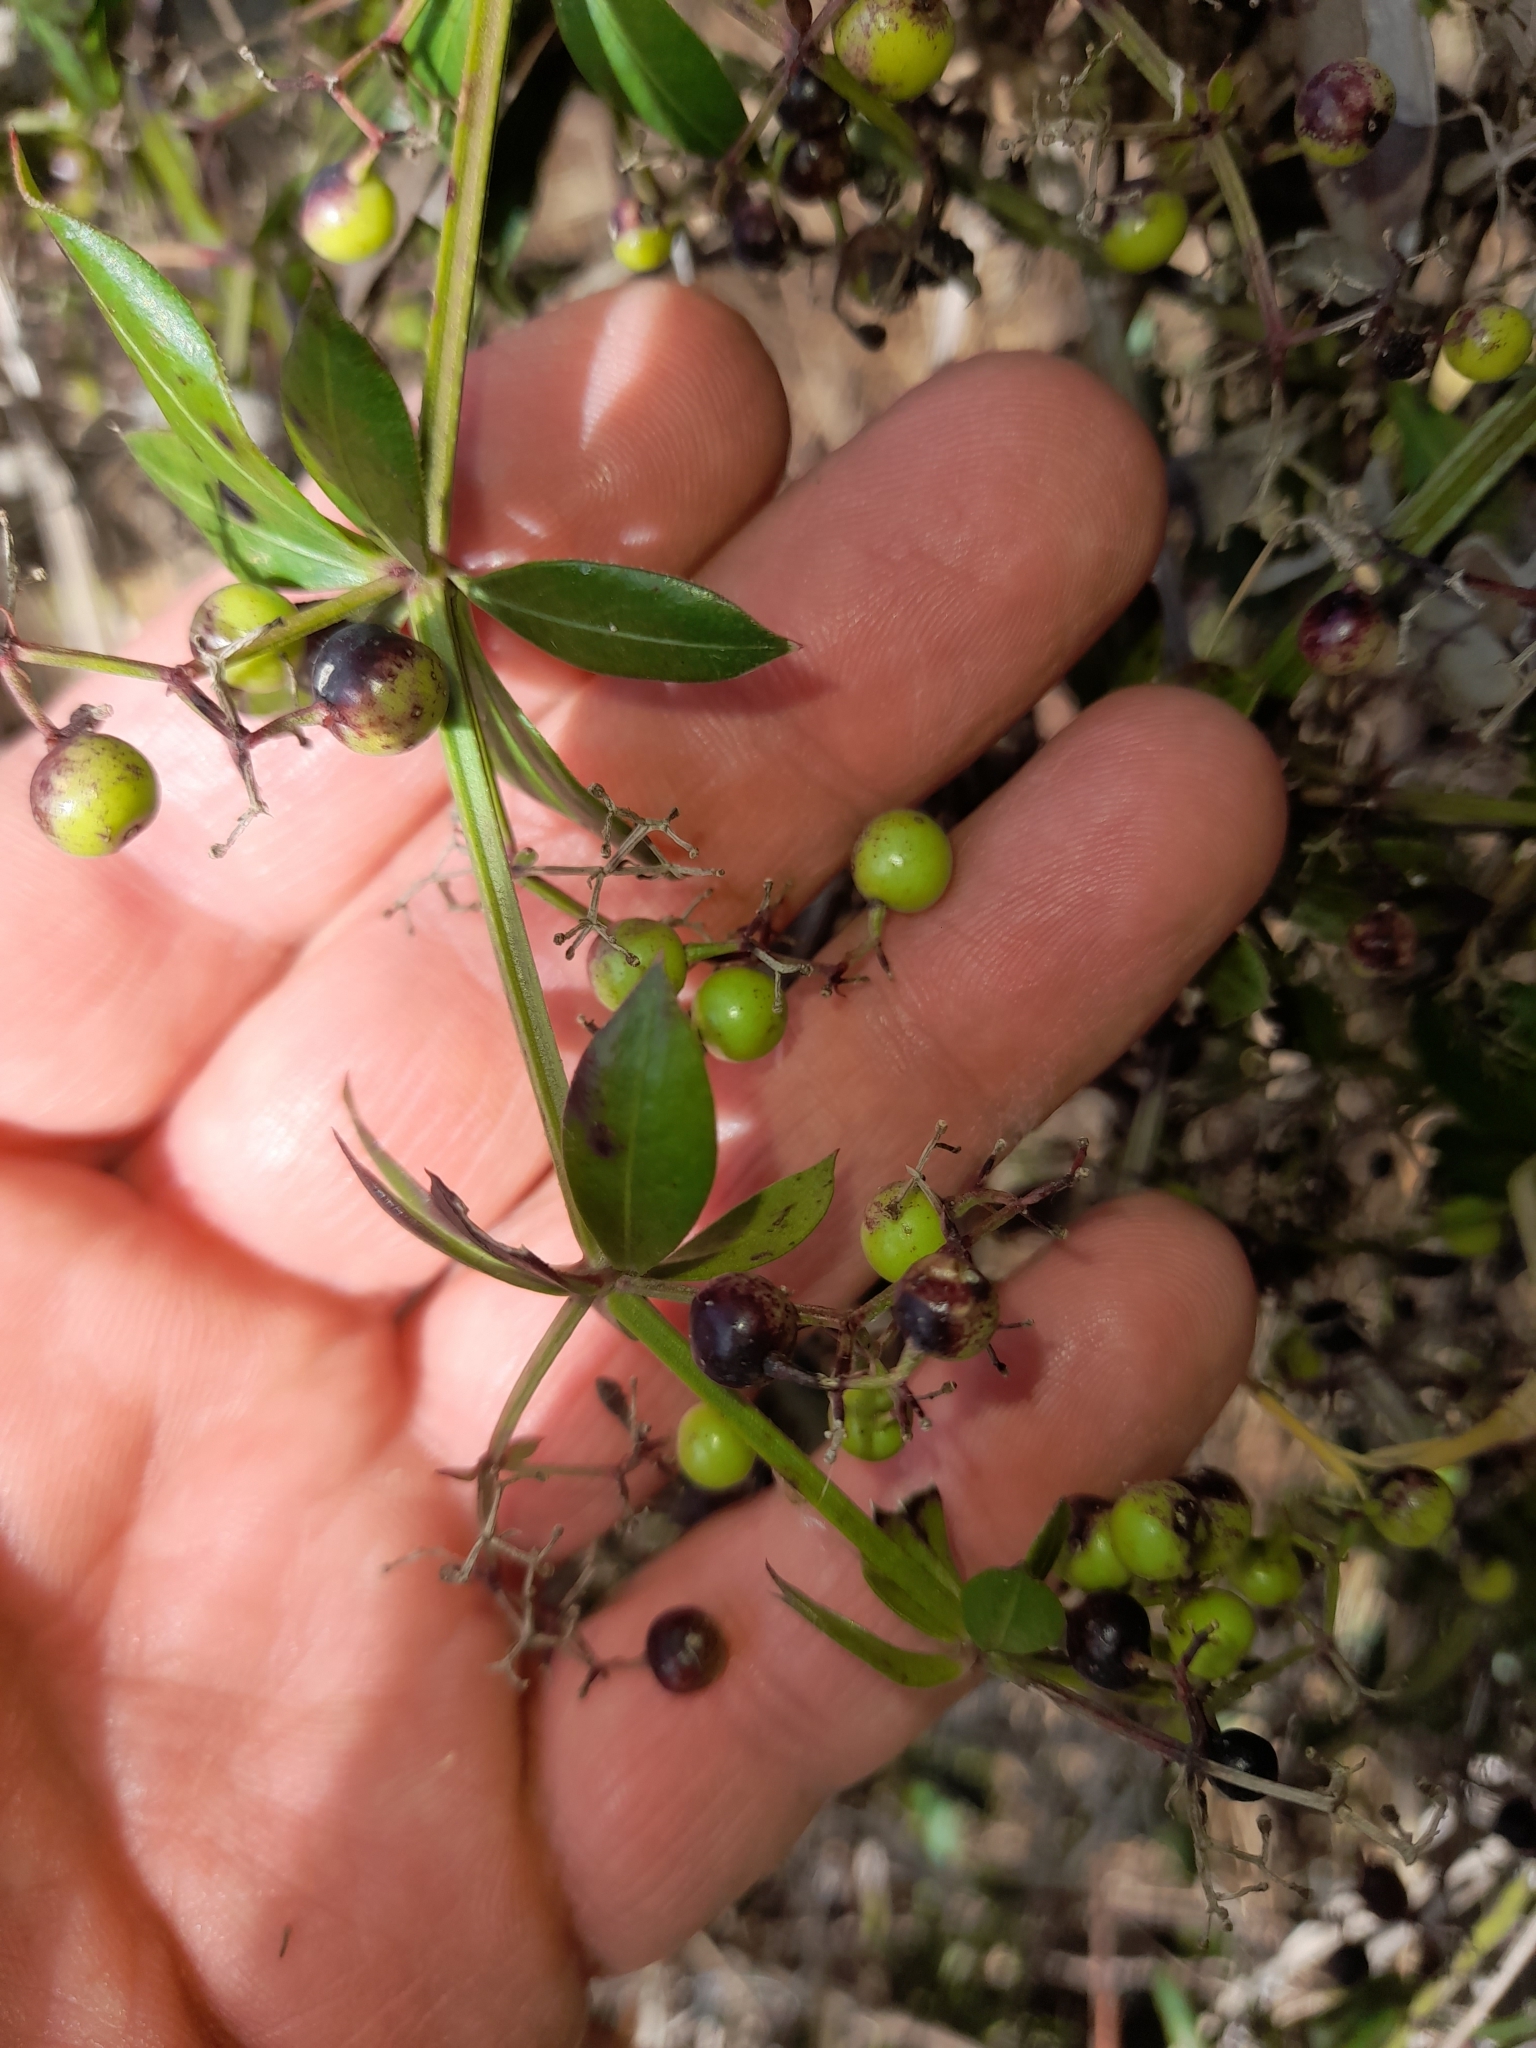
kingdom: Plantae
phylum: Tracheophyta
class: Magnoliopsida
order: Gentianales
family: Rubiaceae
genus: Rubia
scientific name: Rubia peregrina
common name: Wild madder
